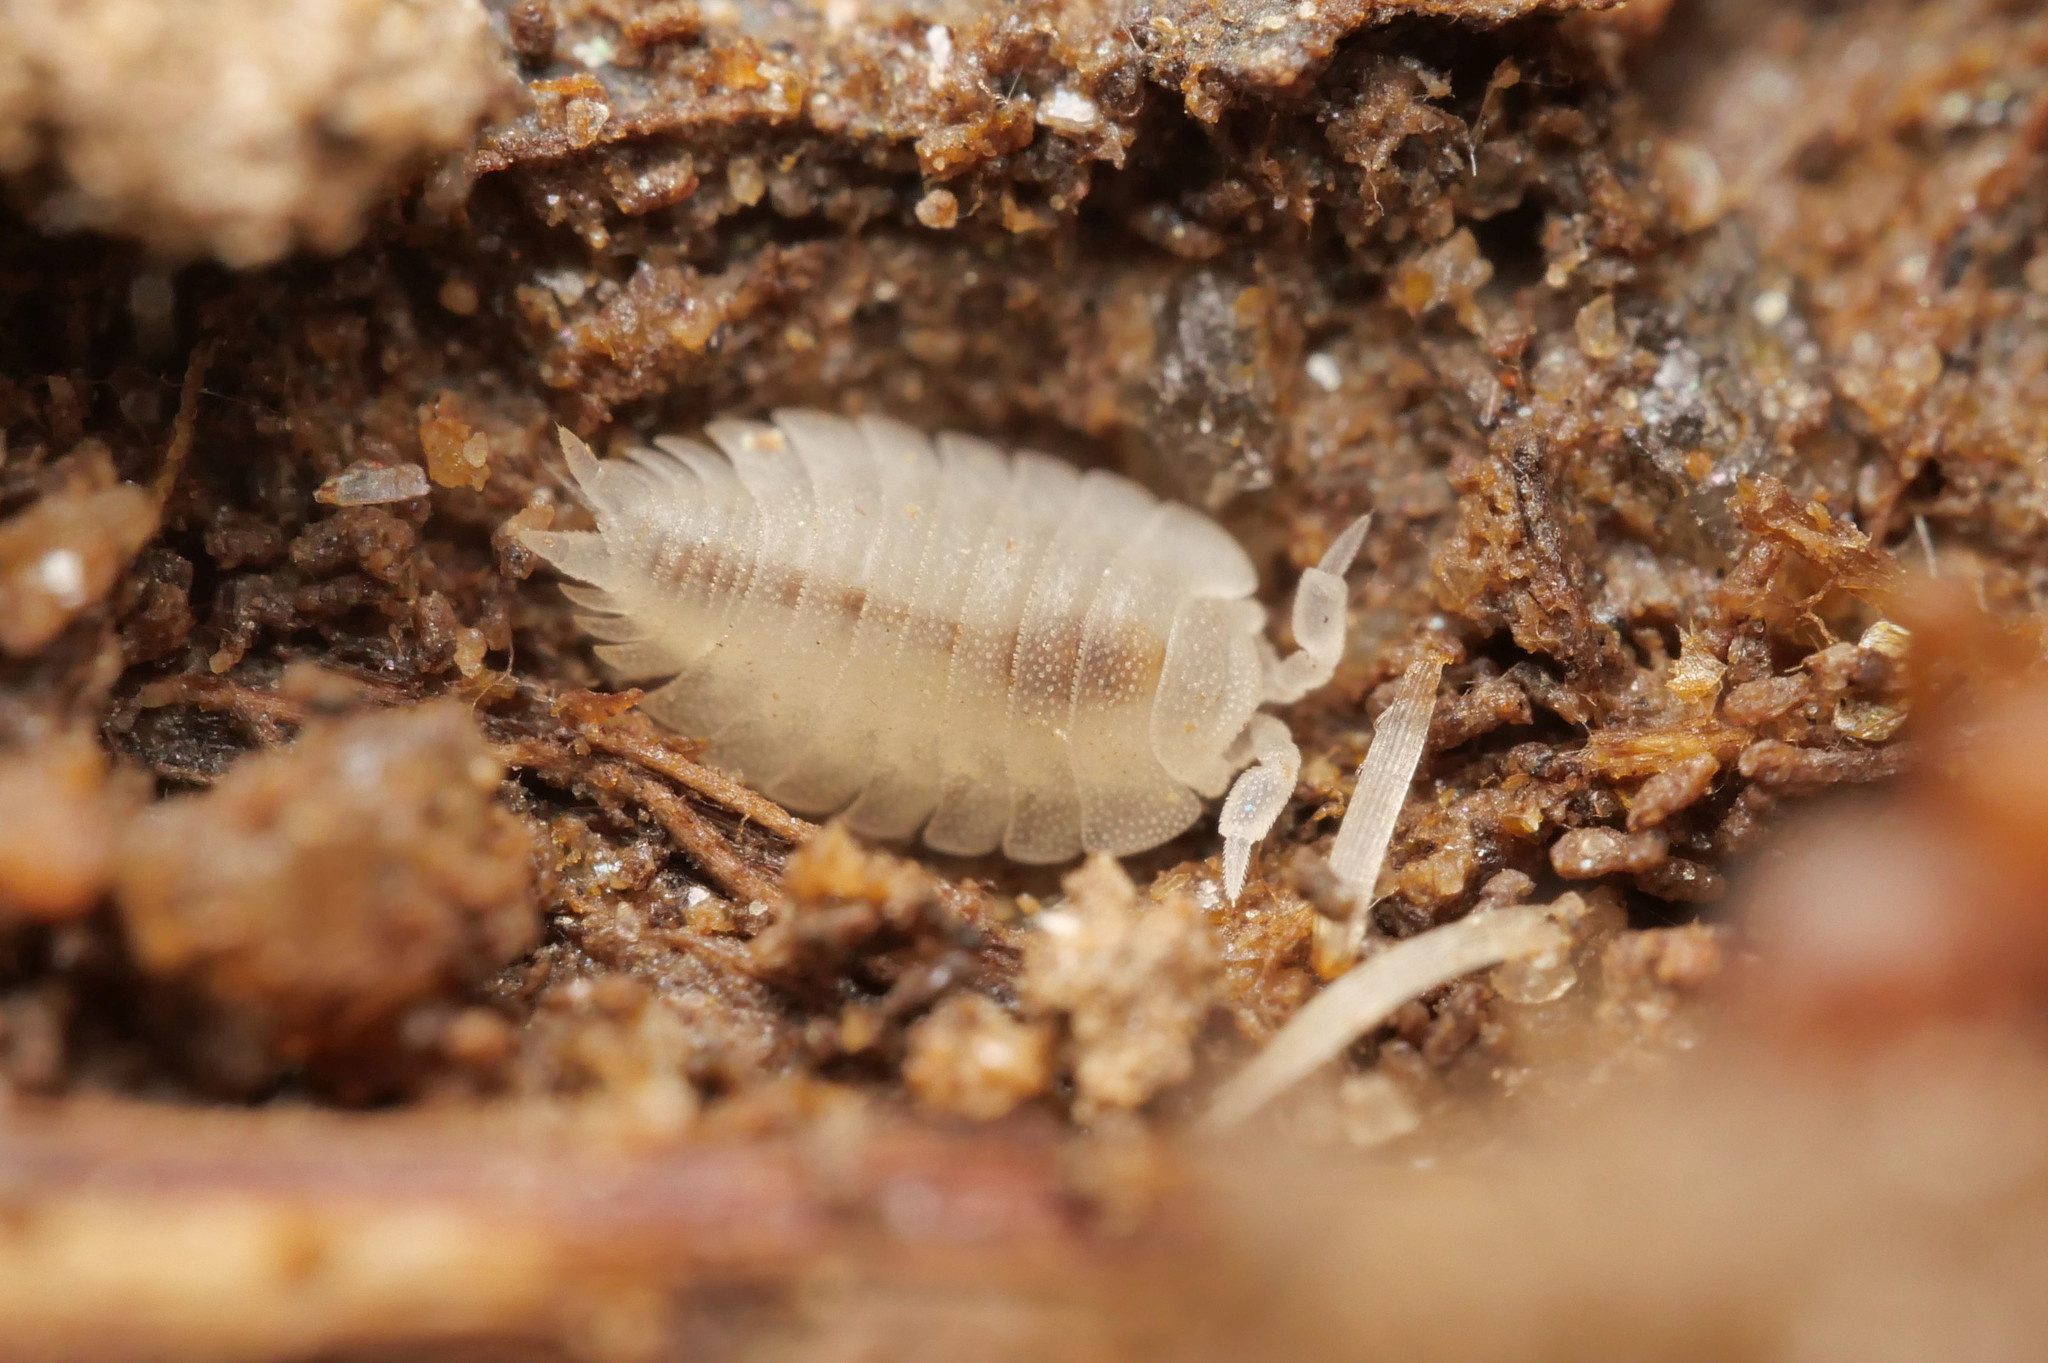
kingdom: Animalia
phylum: Arthropoda
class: Malacostraca
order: Isopoda
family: Platyarthridae
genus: Platyarthrus
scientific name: Platyarthrus hoffmannseggii
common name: Ant woodlouse
